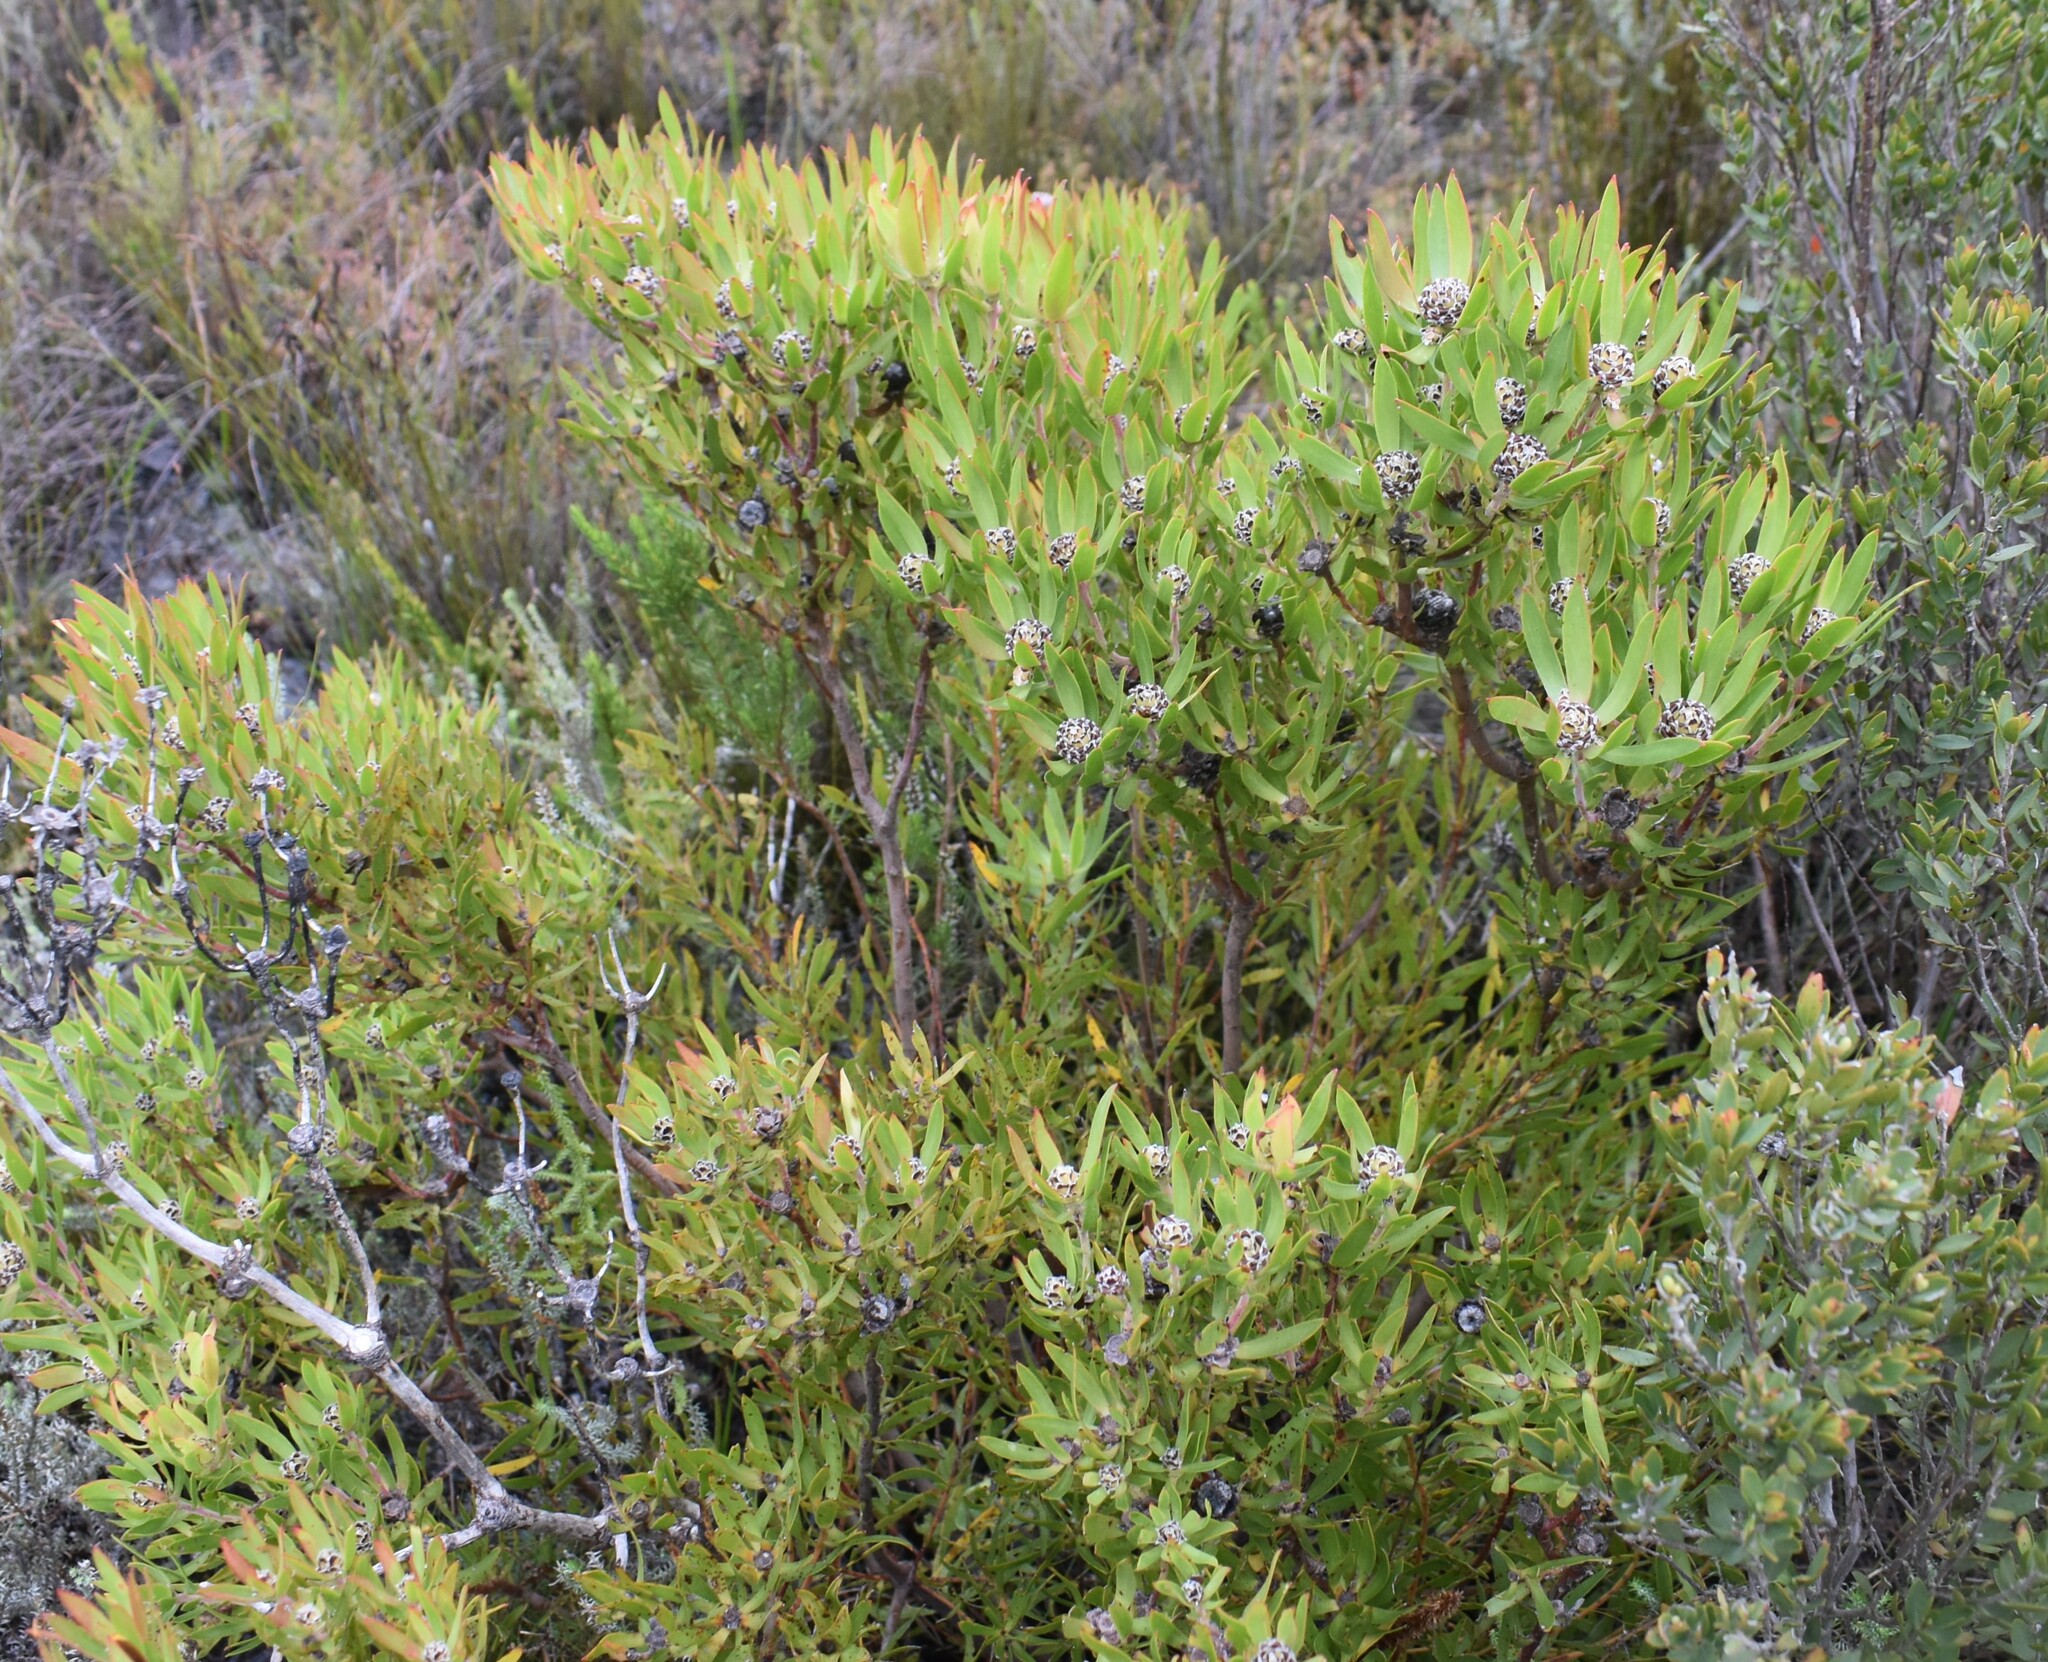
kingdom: Plantae
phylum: Tracheophyta
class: Magnoliopsida
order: Proteales
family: Proteaceae
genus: Leucadendron
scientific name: Leucadendron spissifolium
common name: Spear-leaf conebush
